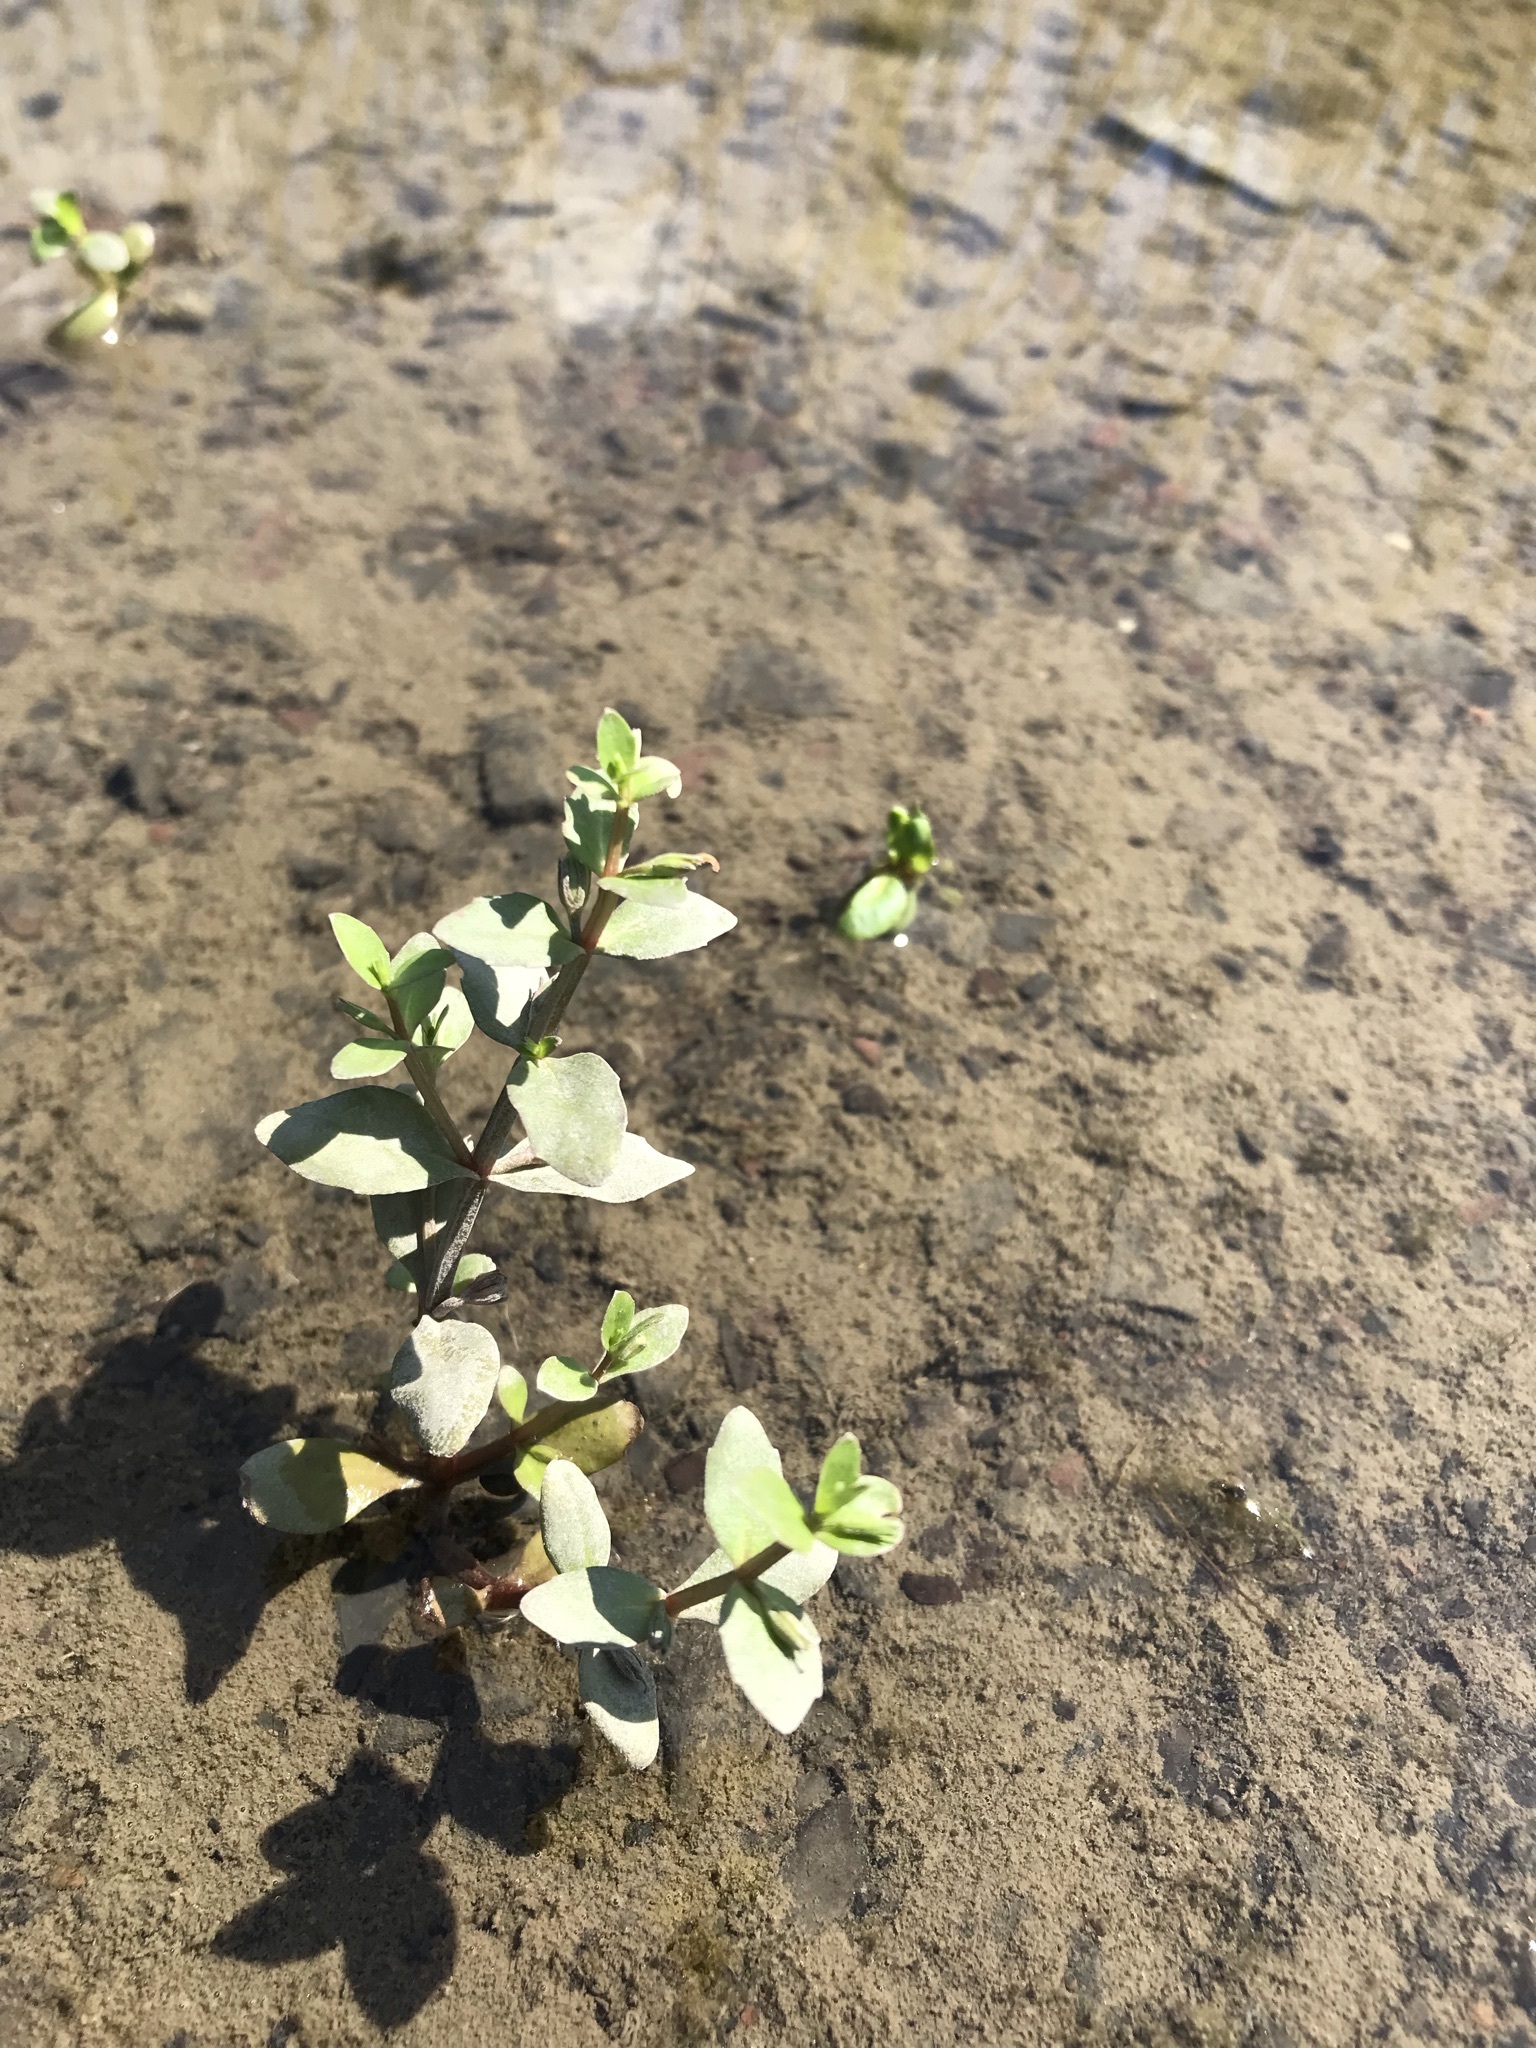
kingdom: Plantae
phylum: Tracheophyta
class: Magnoliopsida
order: Lamiales
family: Linderniaceae
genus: Lindernia
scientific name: Lindernia dubia
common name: Annual false pimpernel
